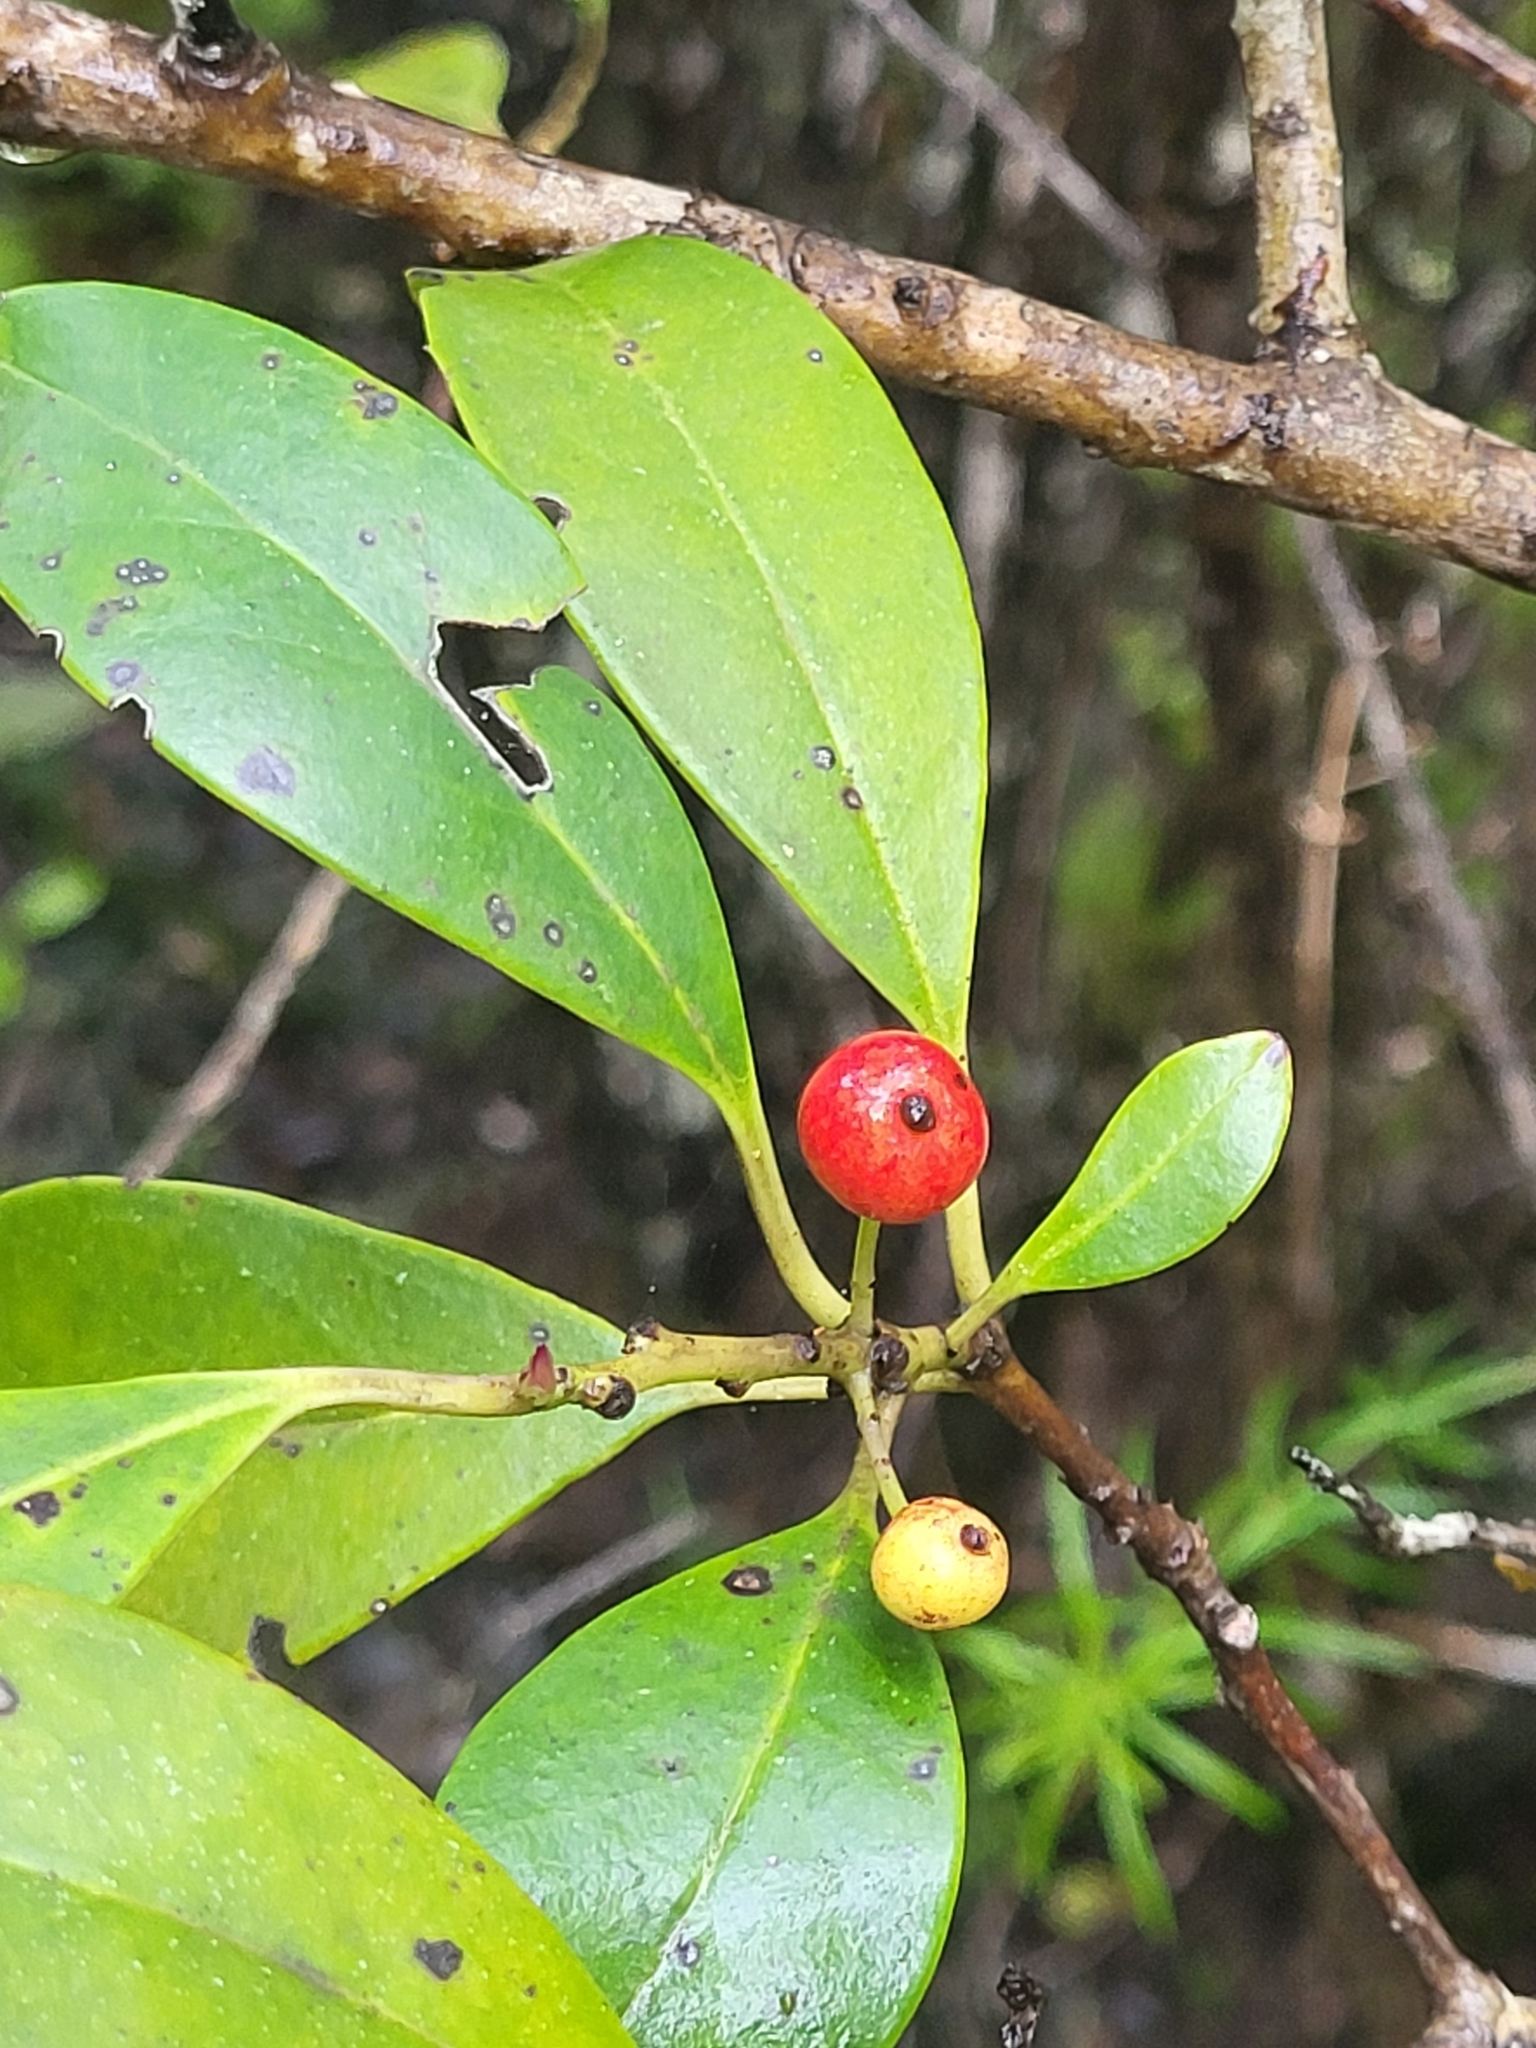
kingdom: Plantae
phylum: Tracheophyta
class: Magnoliopsida
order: Aquifoliales
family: Aquifoliaceae
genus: Ilex
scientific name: Ilex canariensis
